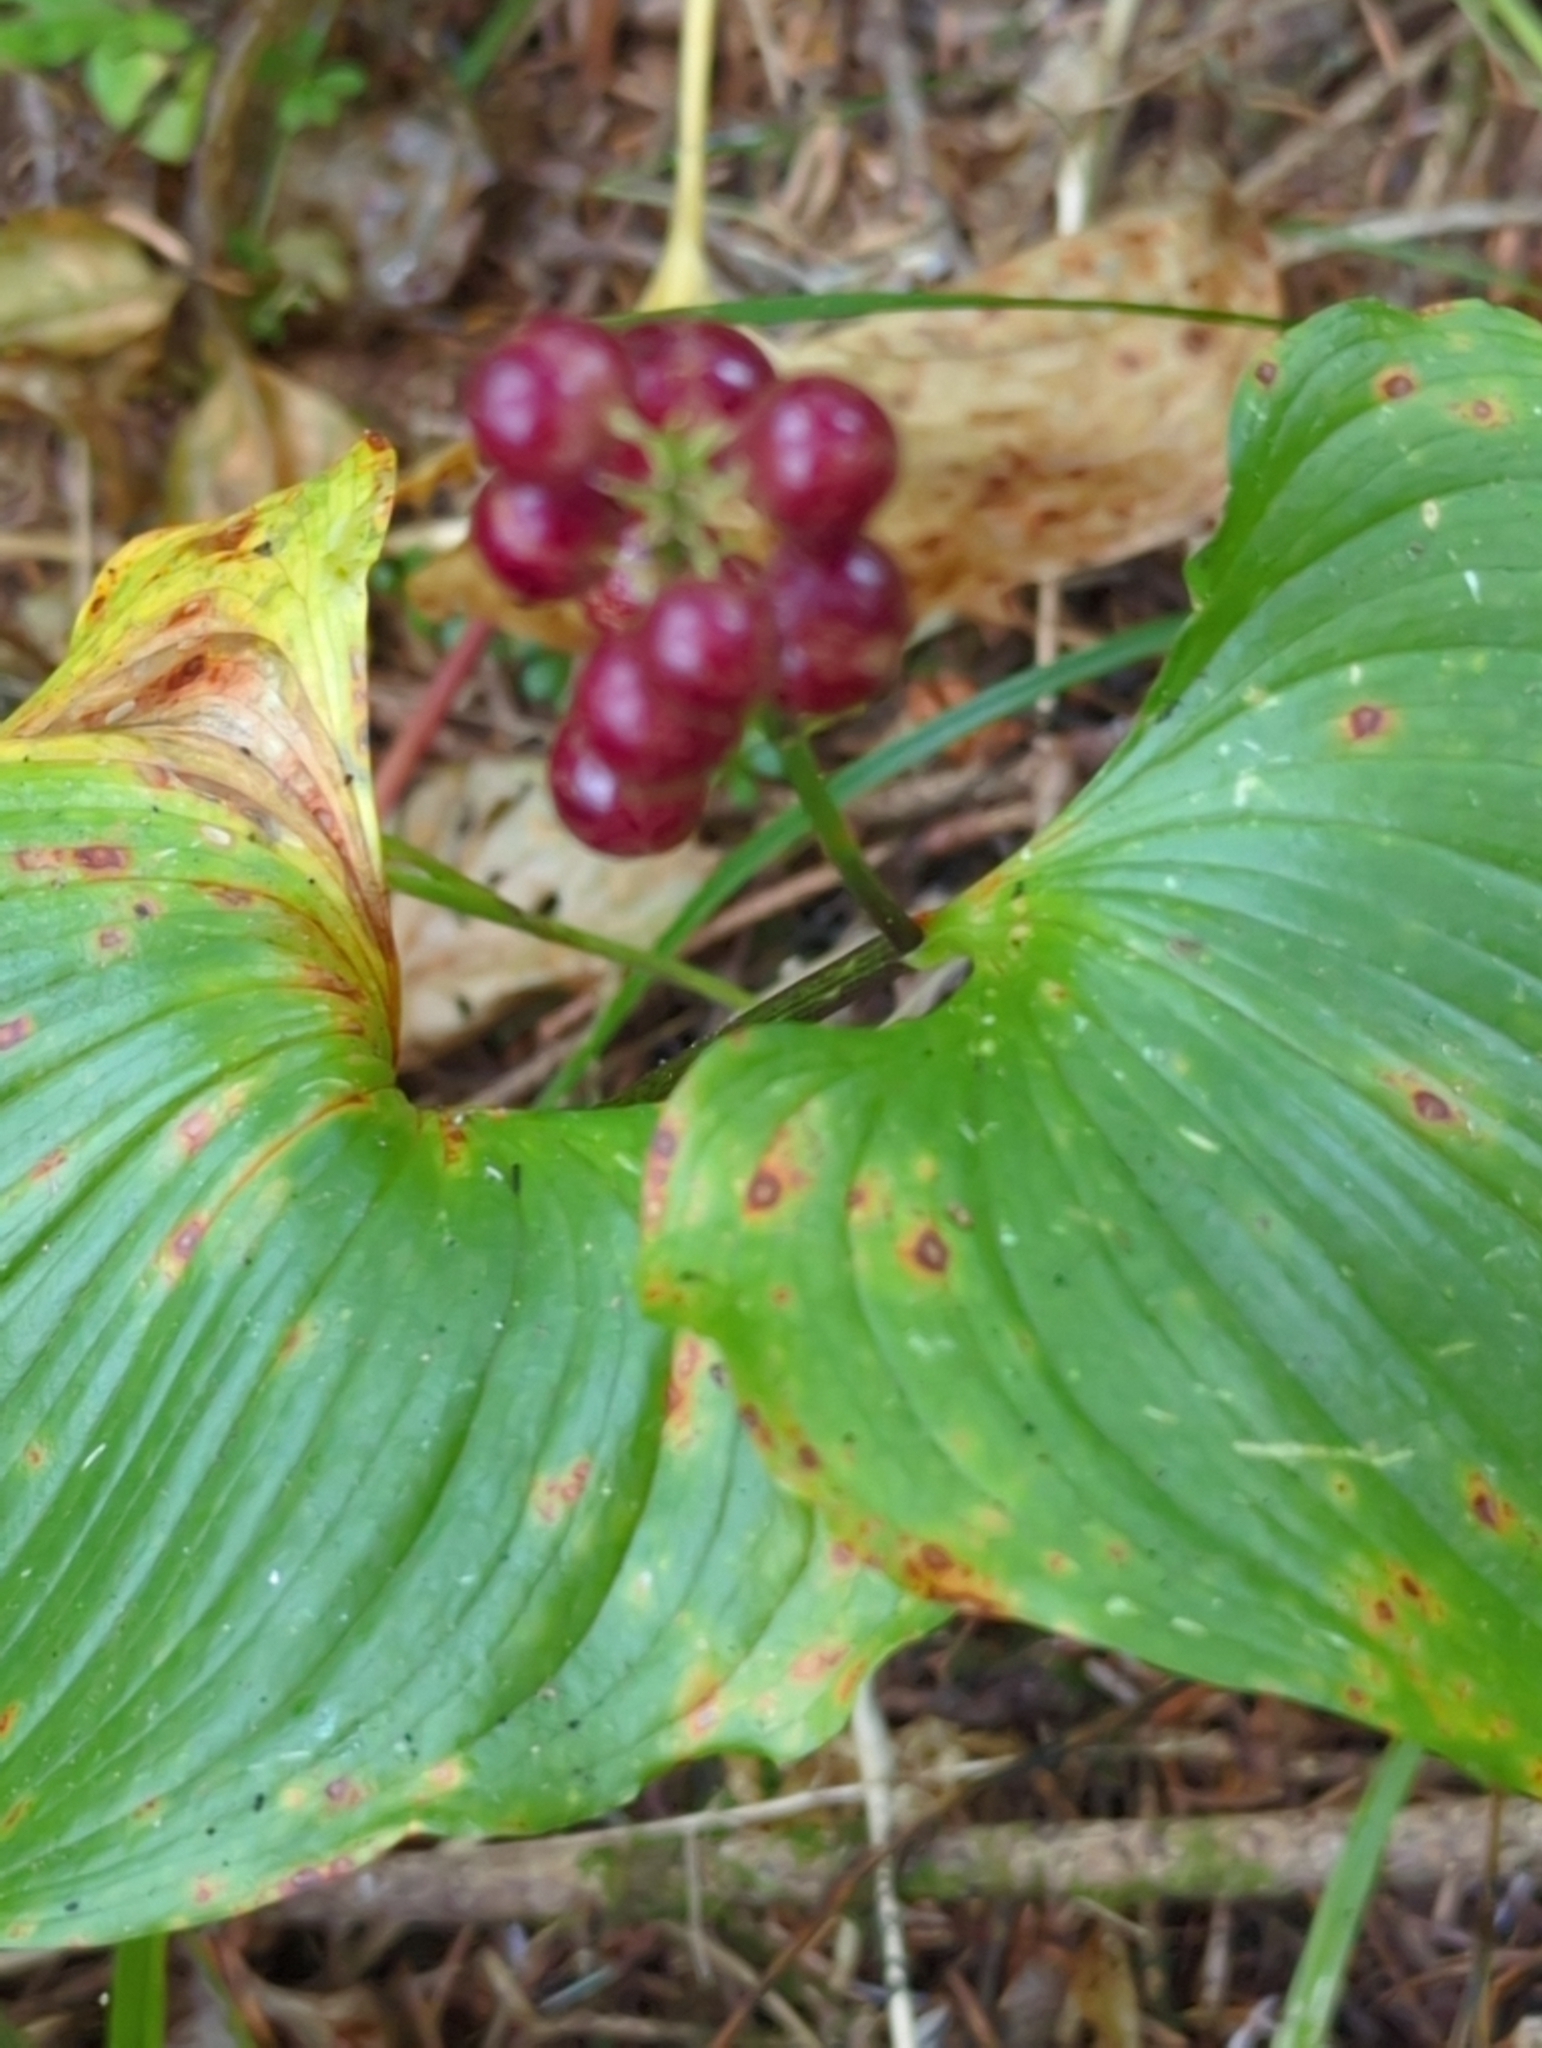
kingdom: Plantae
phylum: Tracheophyta
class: Liliopsida
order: Asparagales
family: Asparagaceae
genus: Maianthemum
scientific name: Maianthemum dilatatum
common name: False lily-of-the-valley
